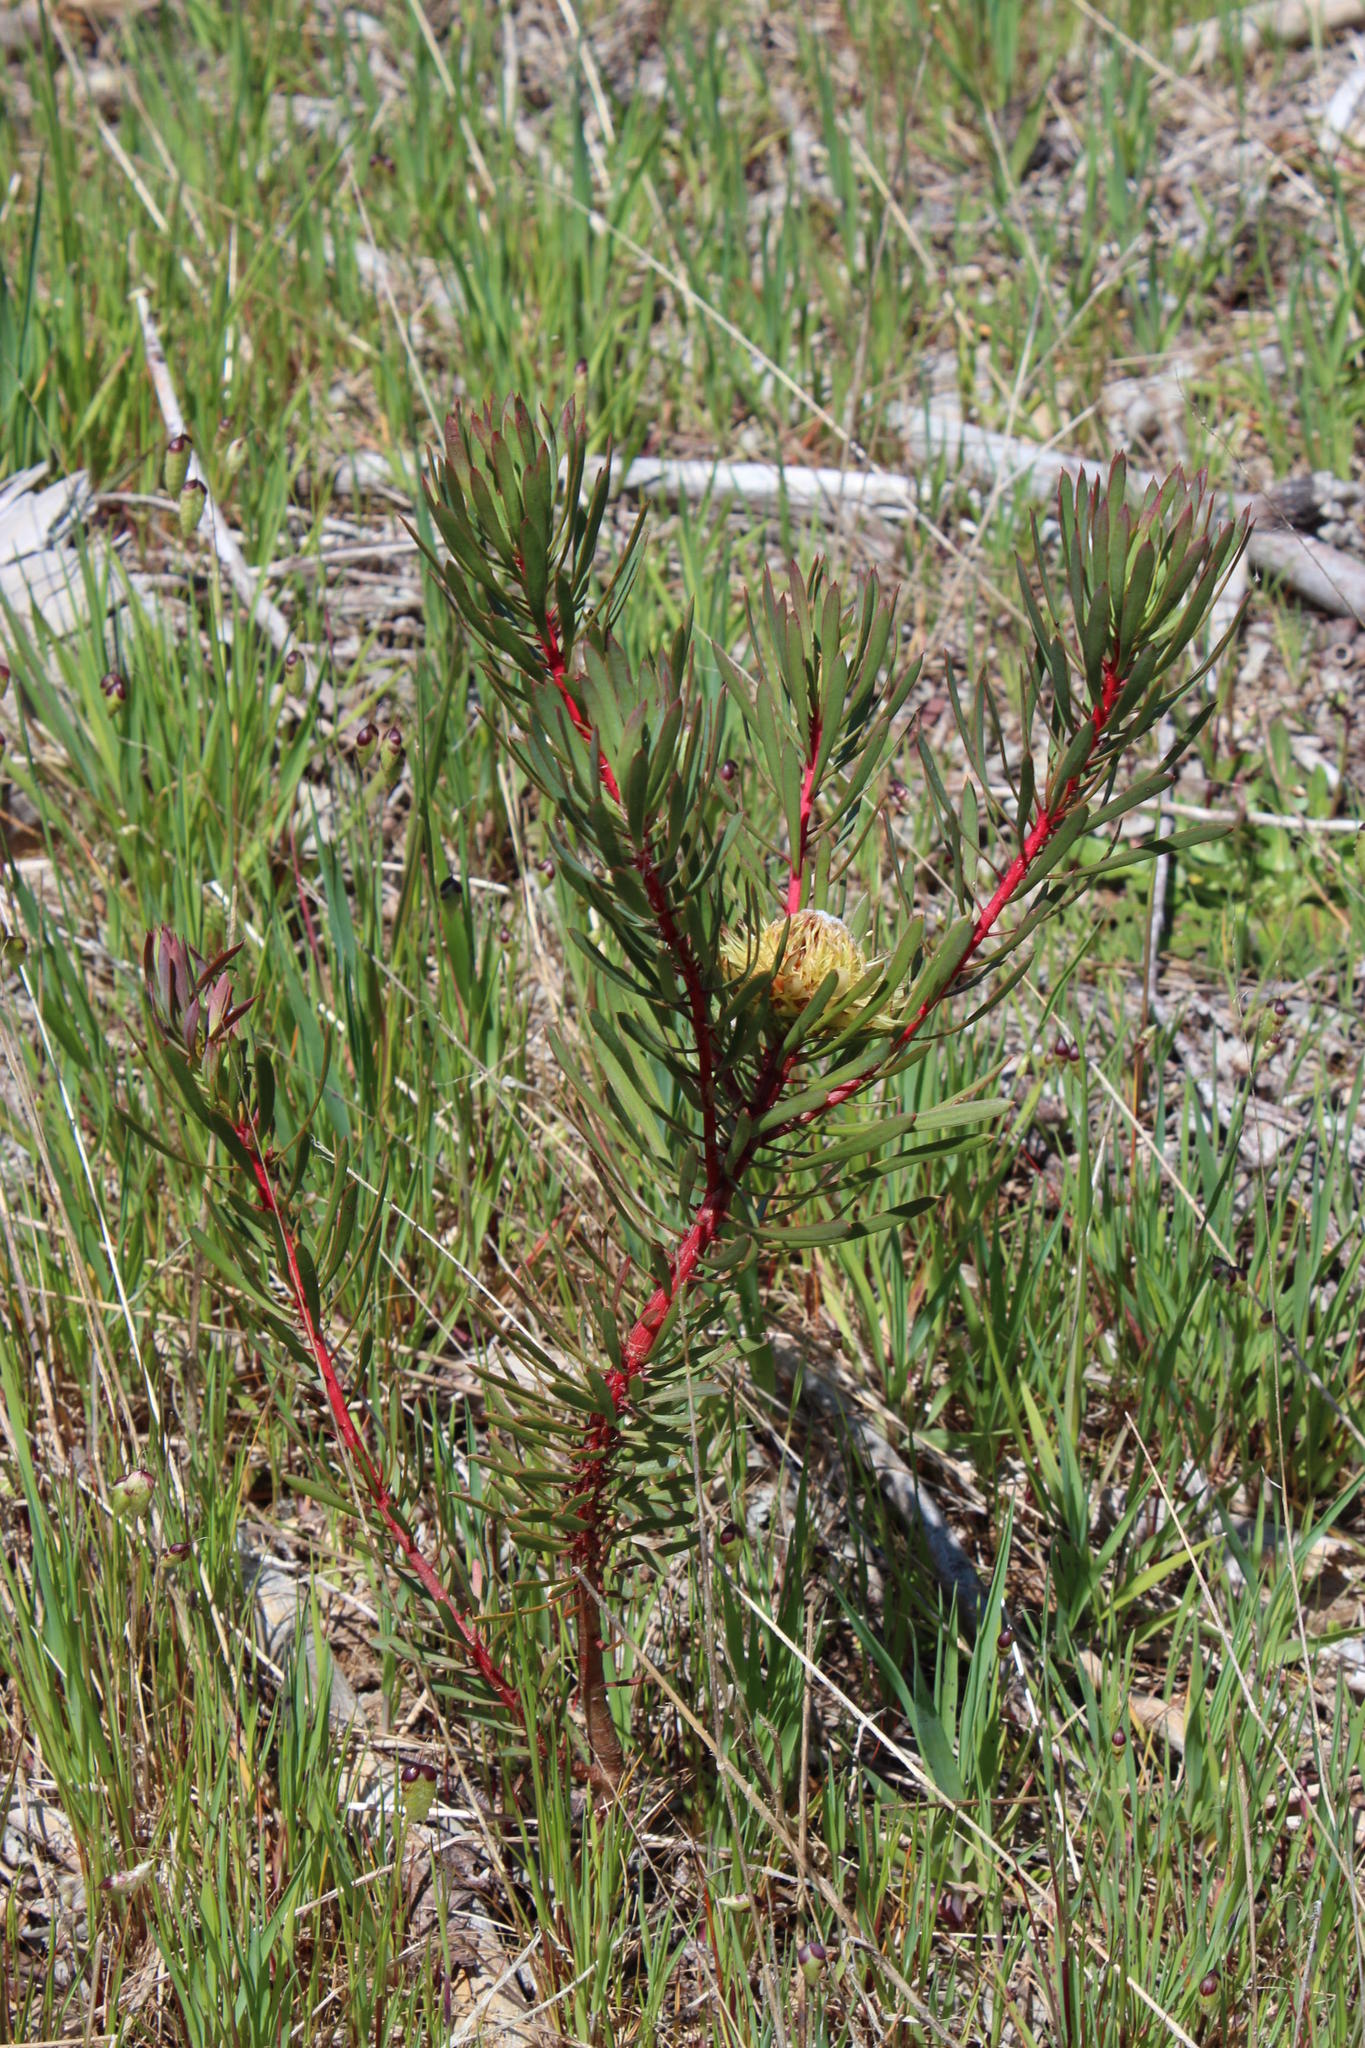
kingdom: Plantae
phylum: Tracheophyta
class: Magnoliopsida
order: Proteales
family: Proteaceae
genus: Protea
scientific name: Protea scolymocephala
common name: Thistle sugarbush
